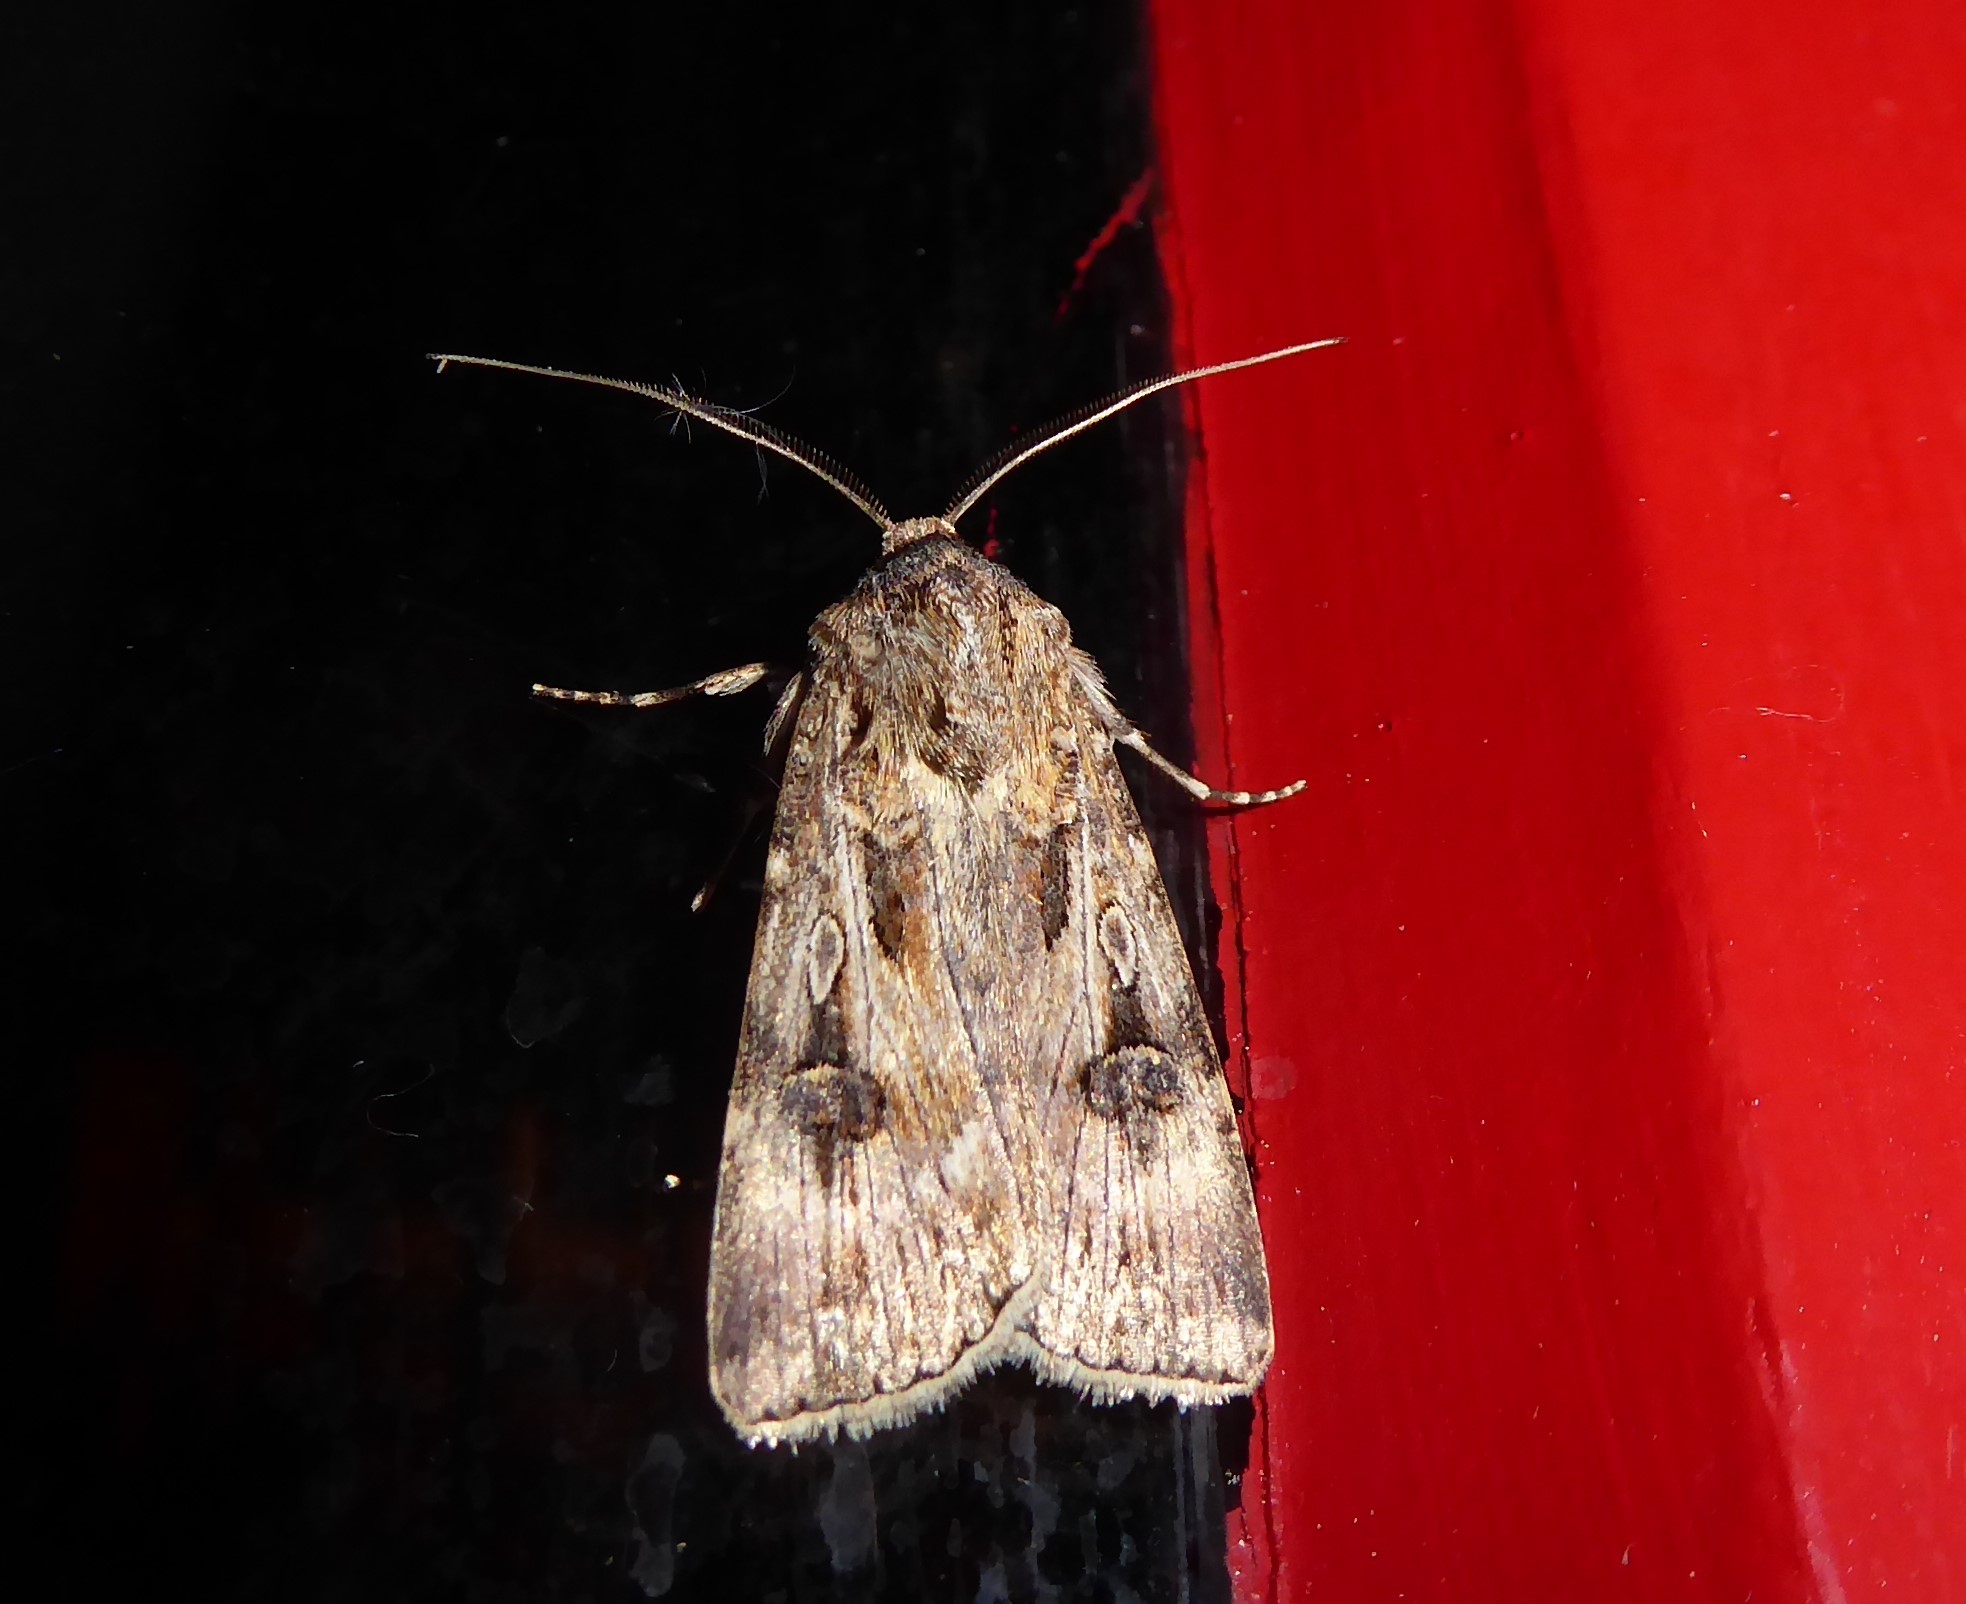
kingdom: Animalia
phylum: Arthropoda
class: Insecta
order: Lepidoptera
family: Noctuidae
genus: Agrotis
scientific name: Agrotis munda
